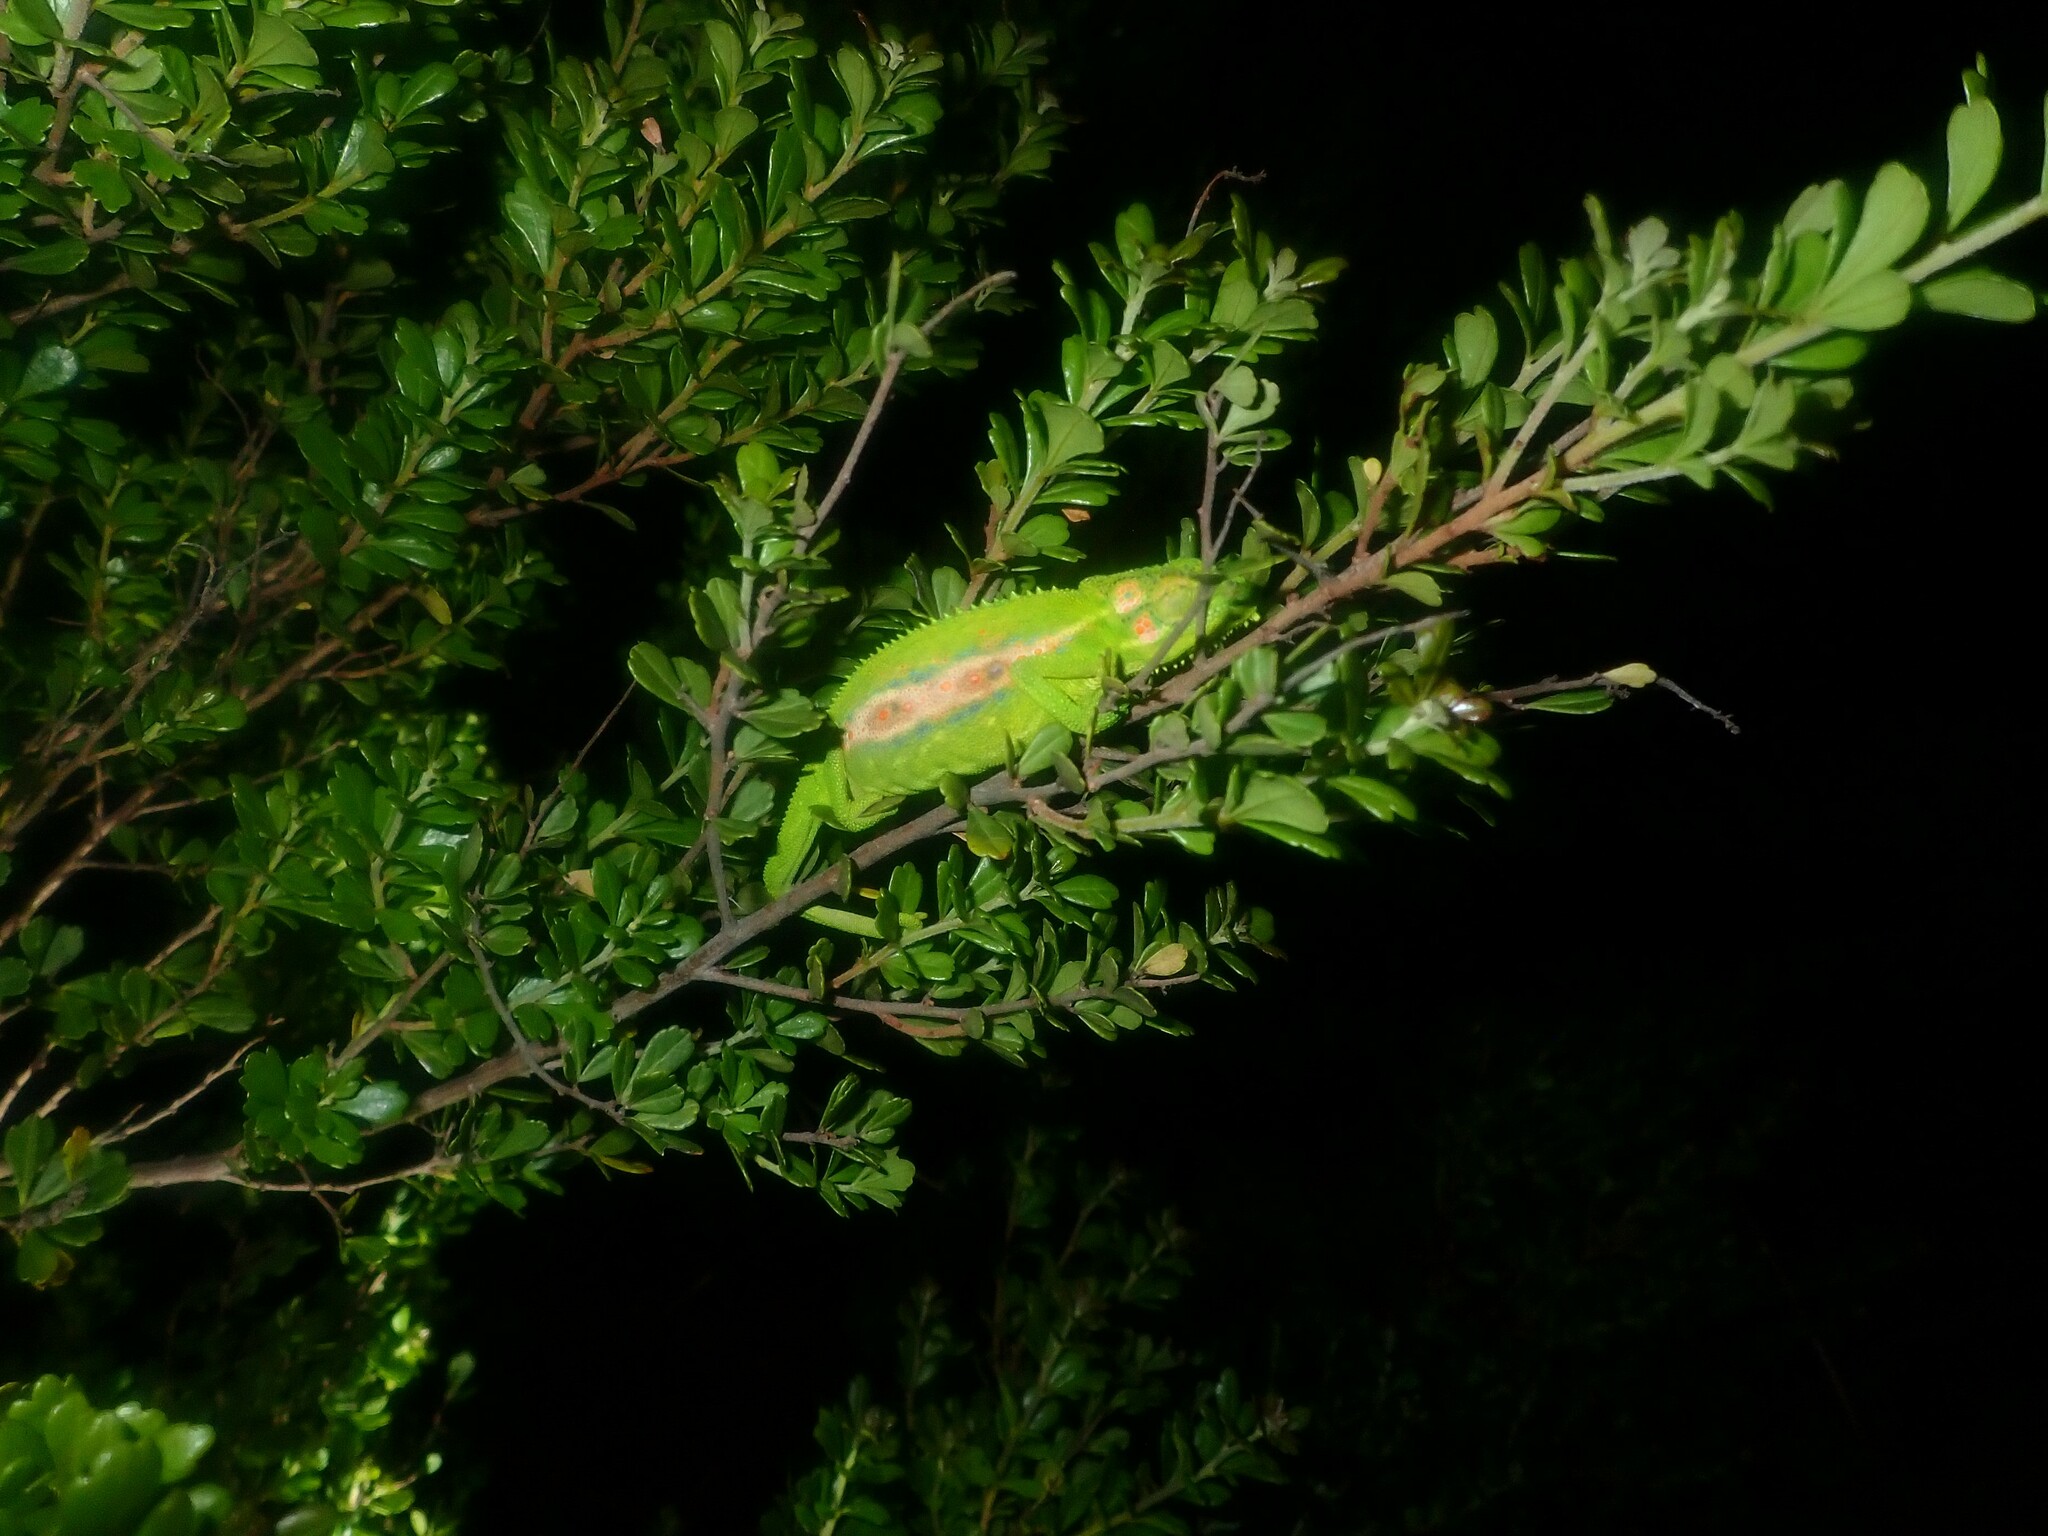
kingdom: Animalia
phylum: Chordata
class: Squamata
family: Chamaeleonidae
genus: Bradypodion
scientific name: Bradypodion pumilum
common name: Cape dwarf chameleon
